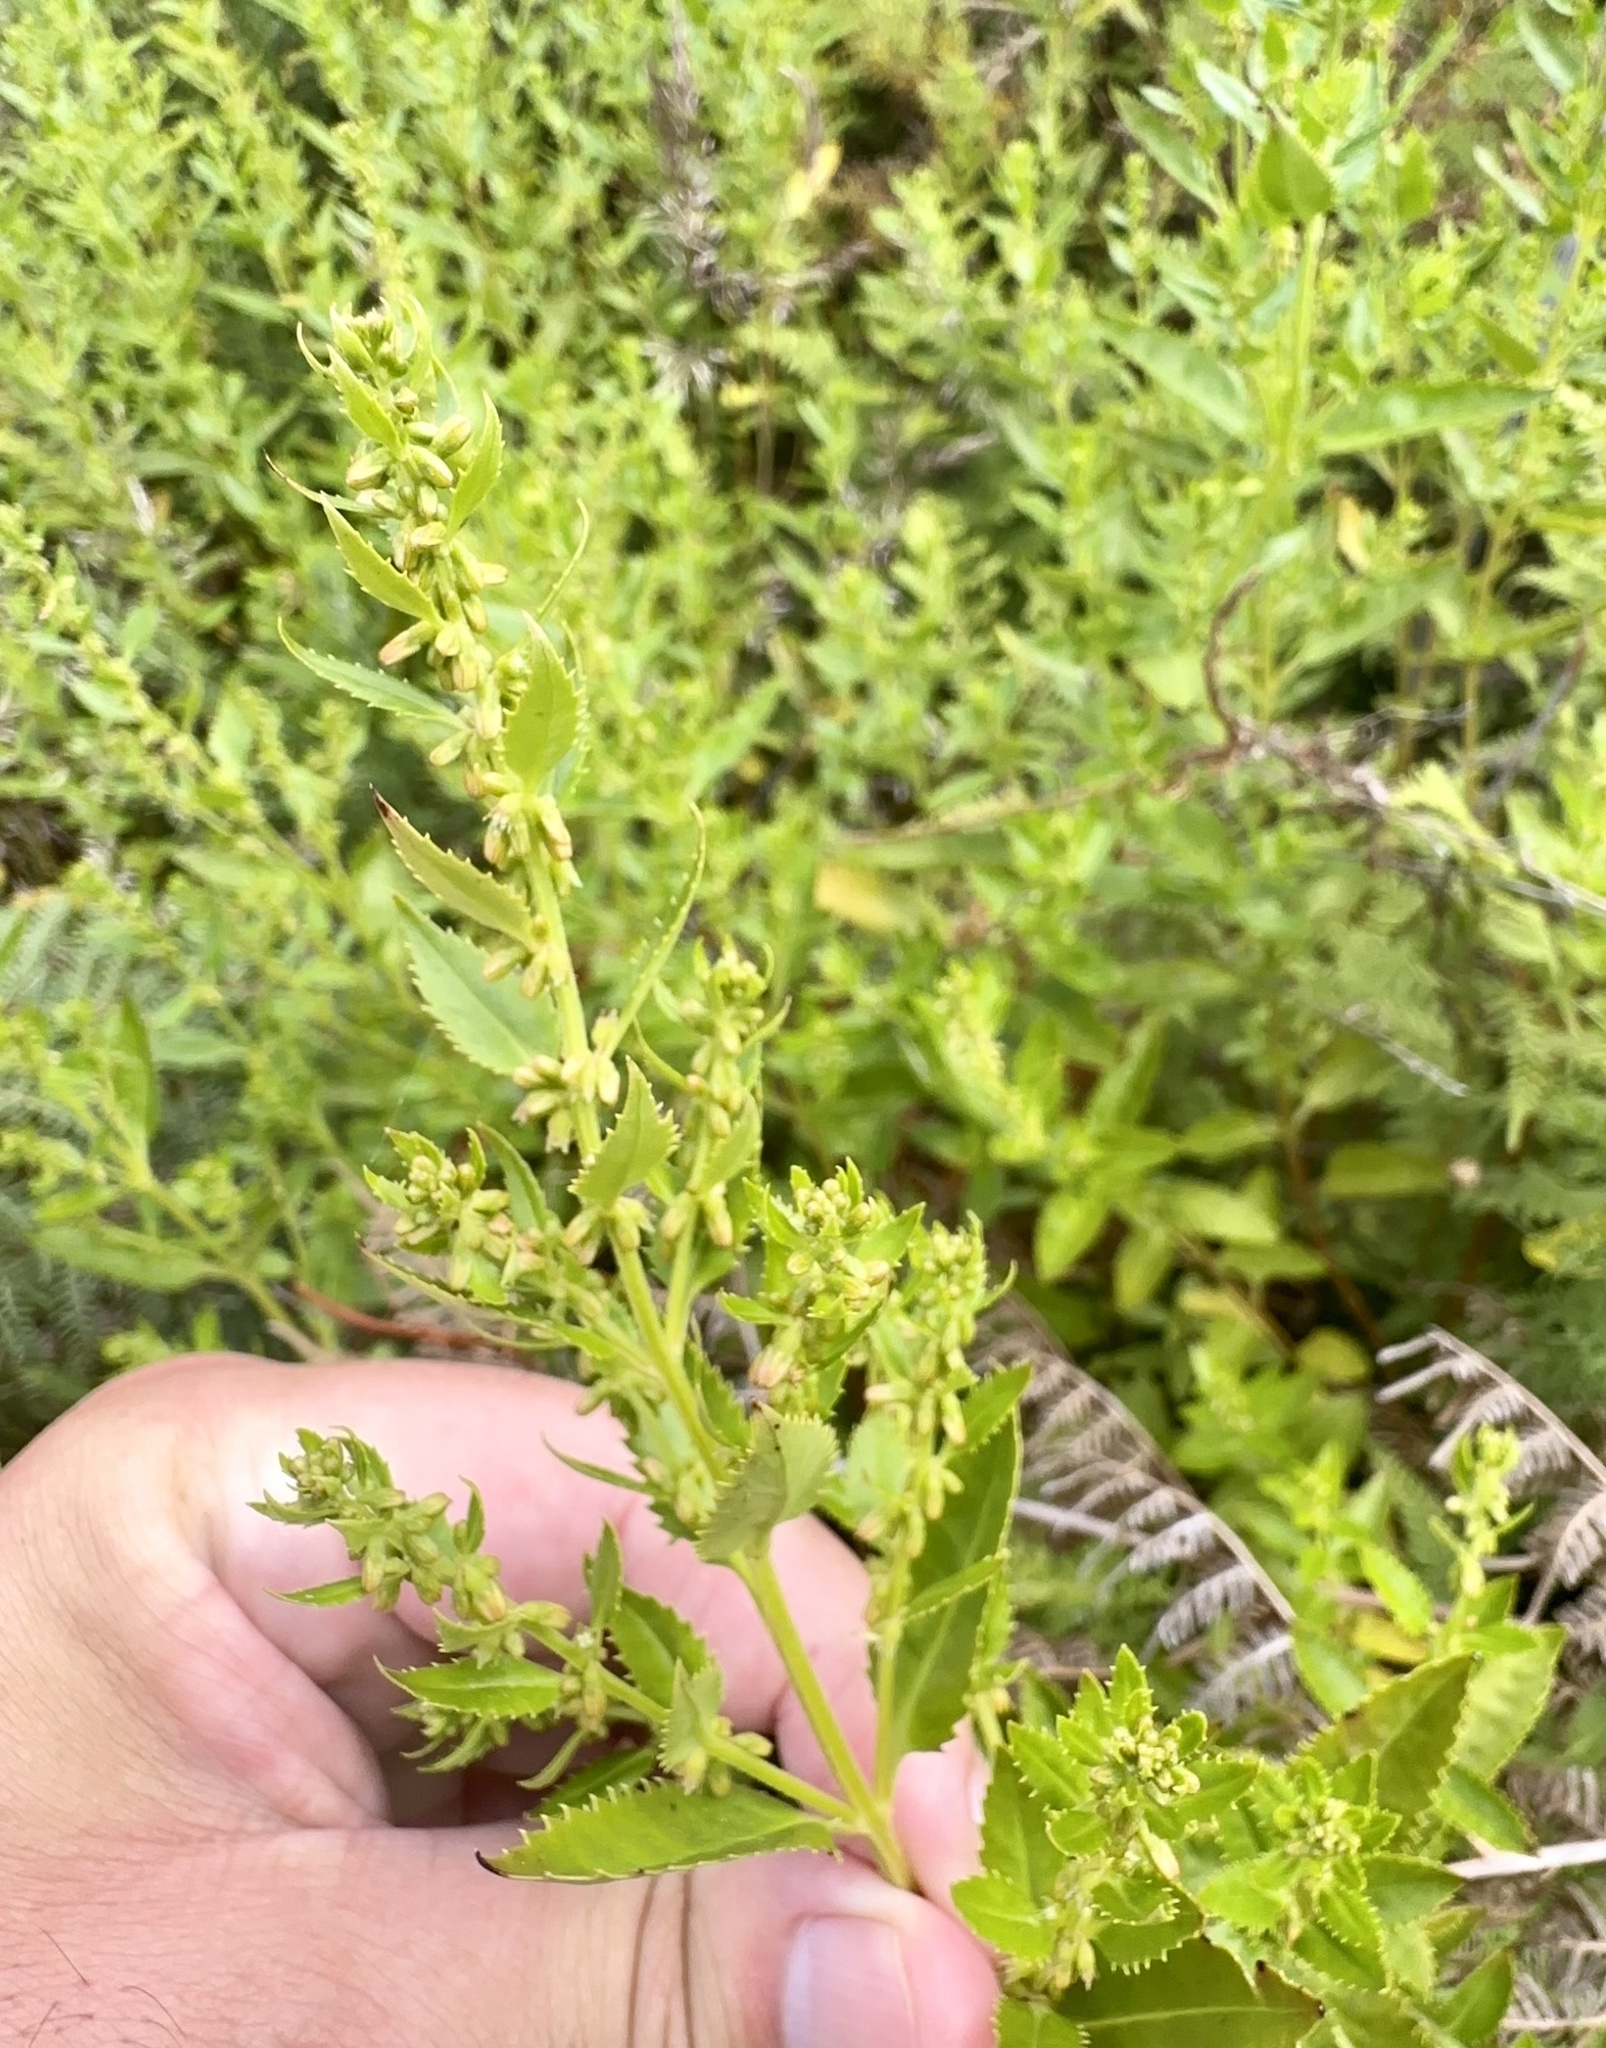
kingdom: Plantae
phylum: Tracheophyta
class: Magnoliopsida
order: Saxifragales
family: Haloragaceae
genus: Haloragis
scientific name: Haloragis erecta
